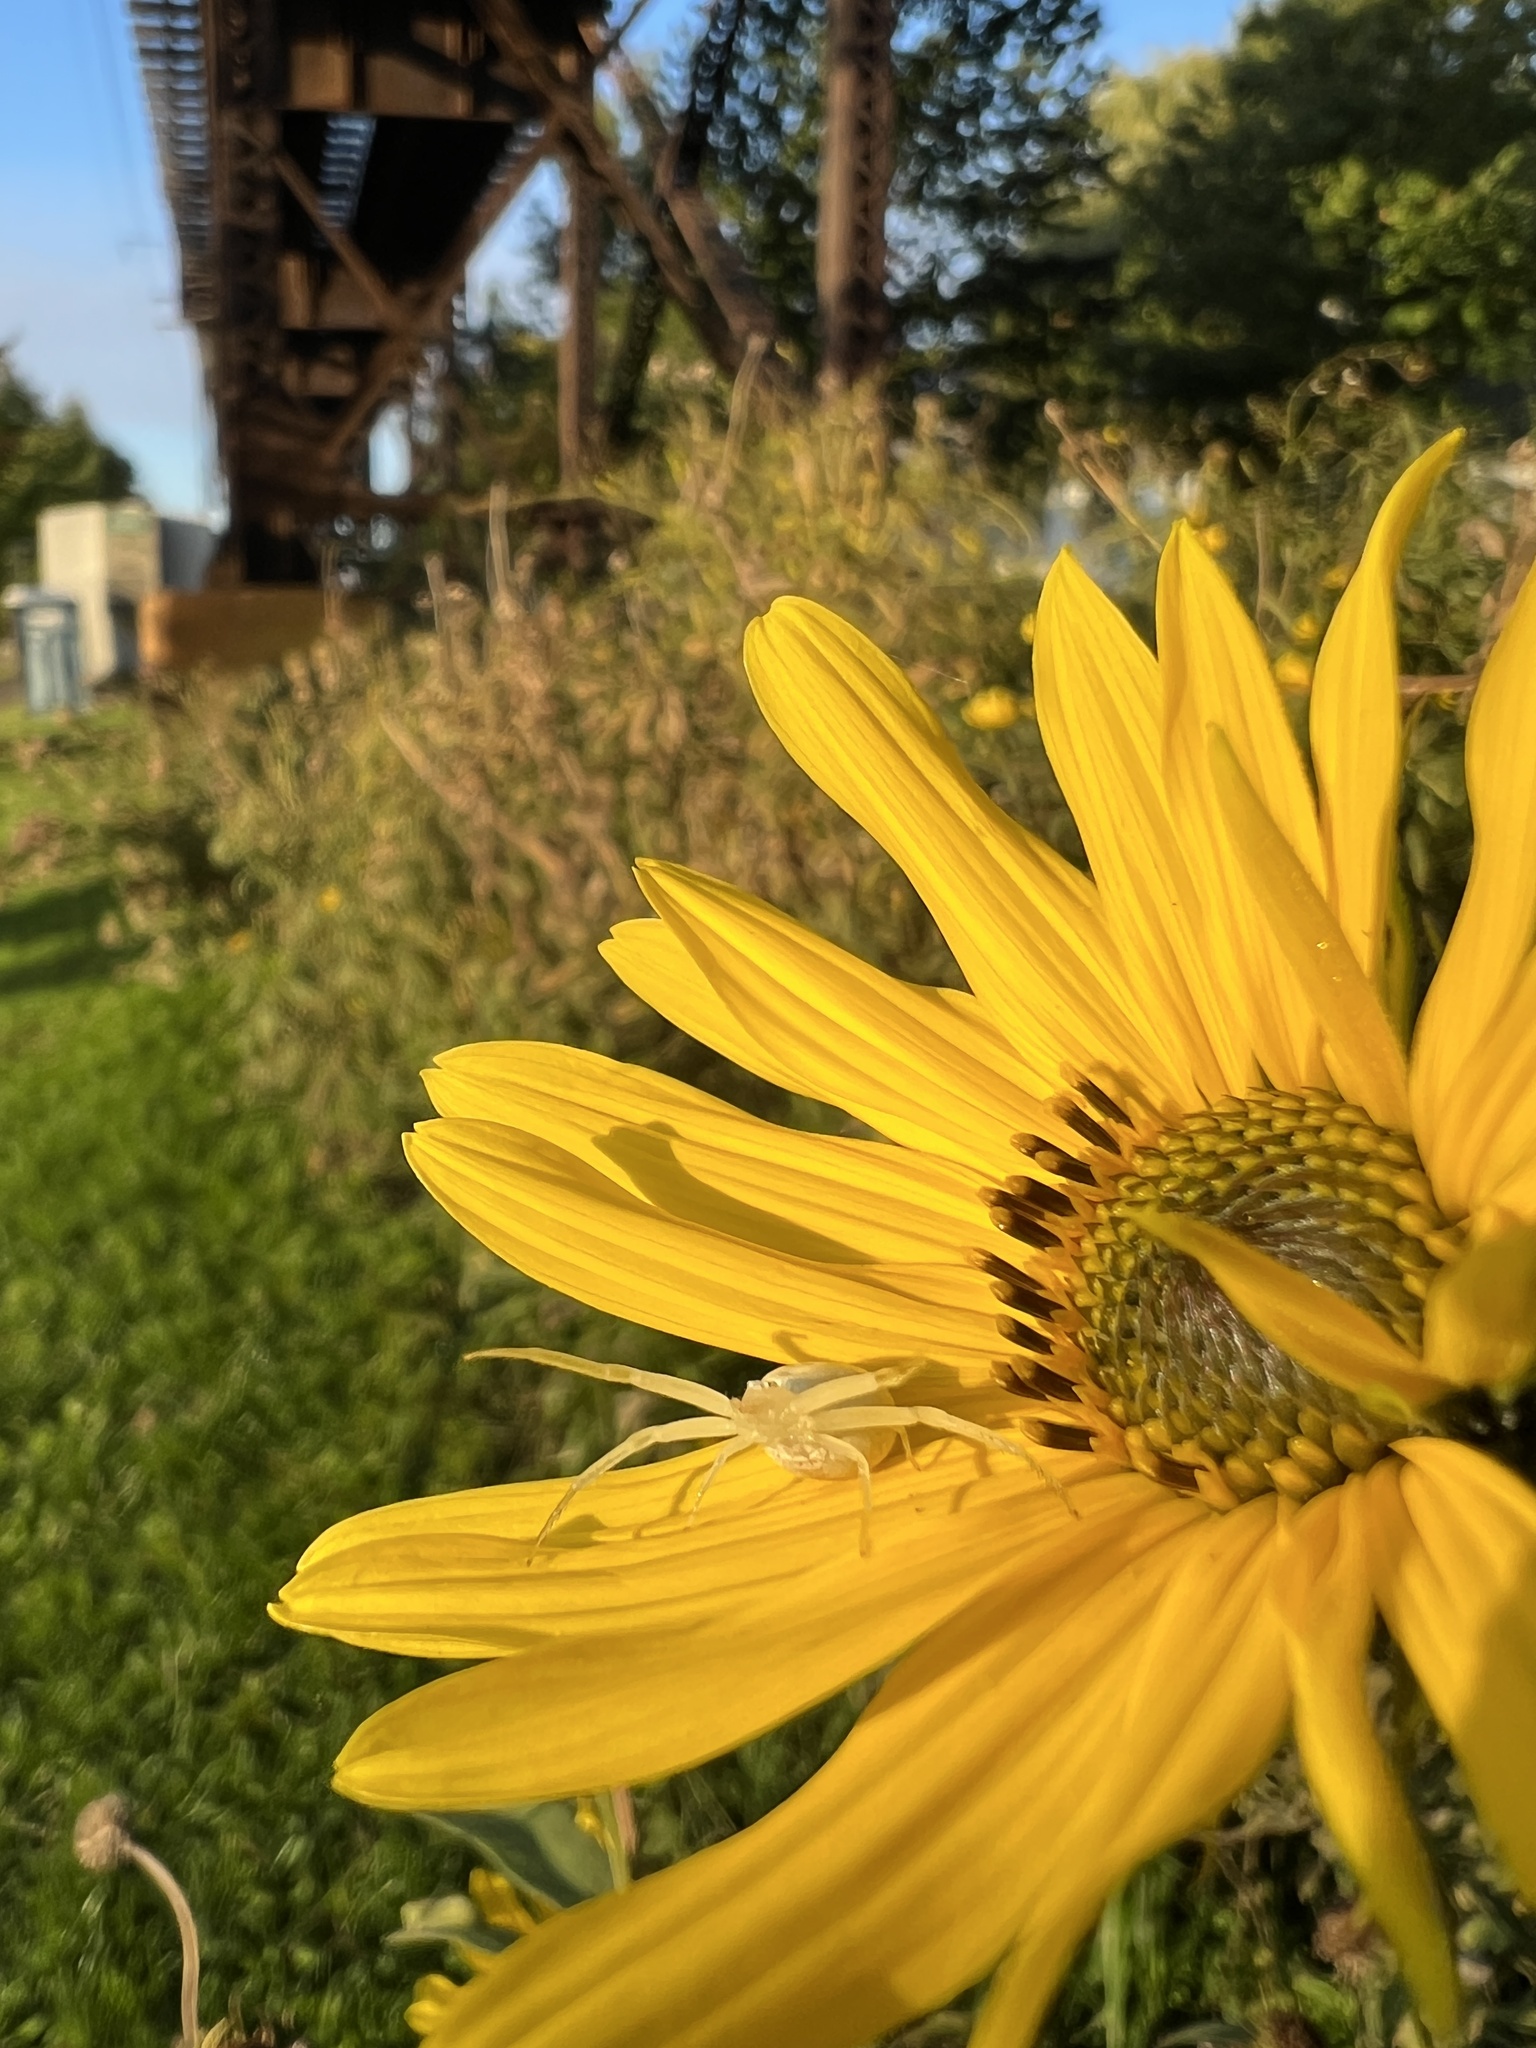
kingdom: Animalia
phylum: Arthropoda
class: Arachnida
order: Araneae
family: Thomisidae
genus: Misumessus
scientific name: Misumessus oblongus
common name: American green crab spider
